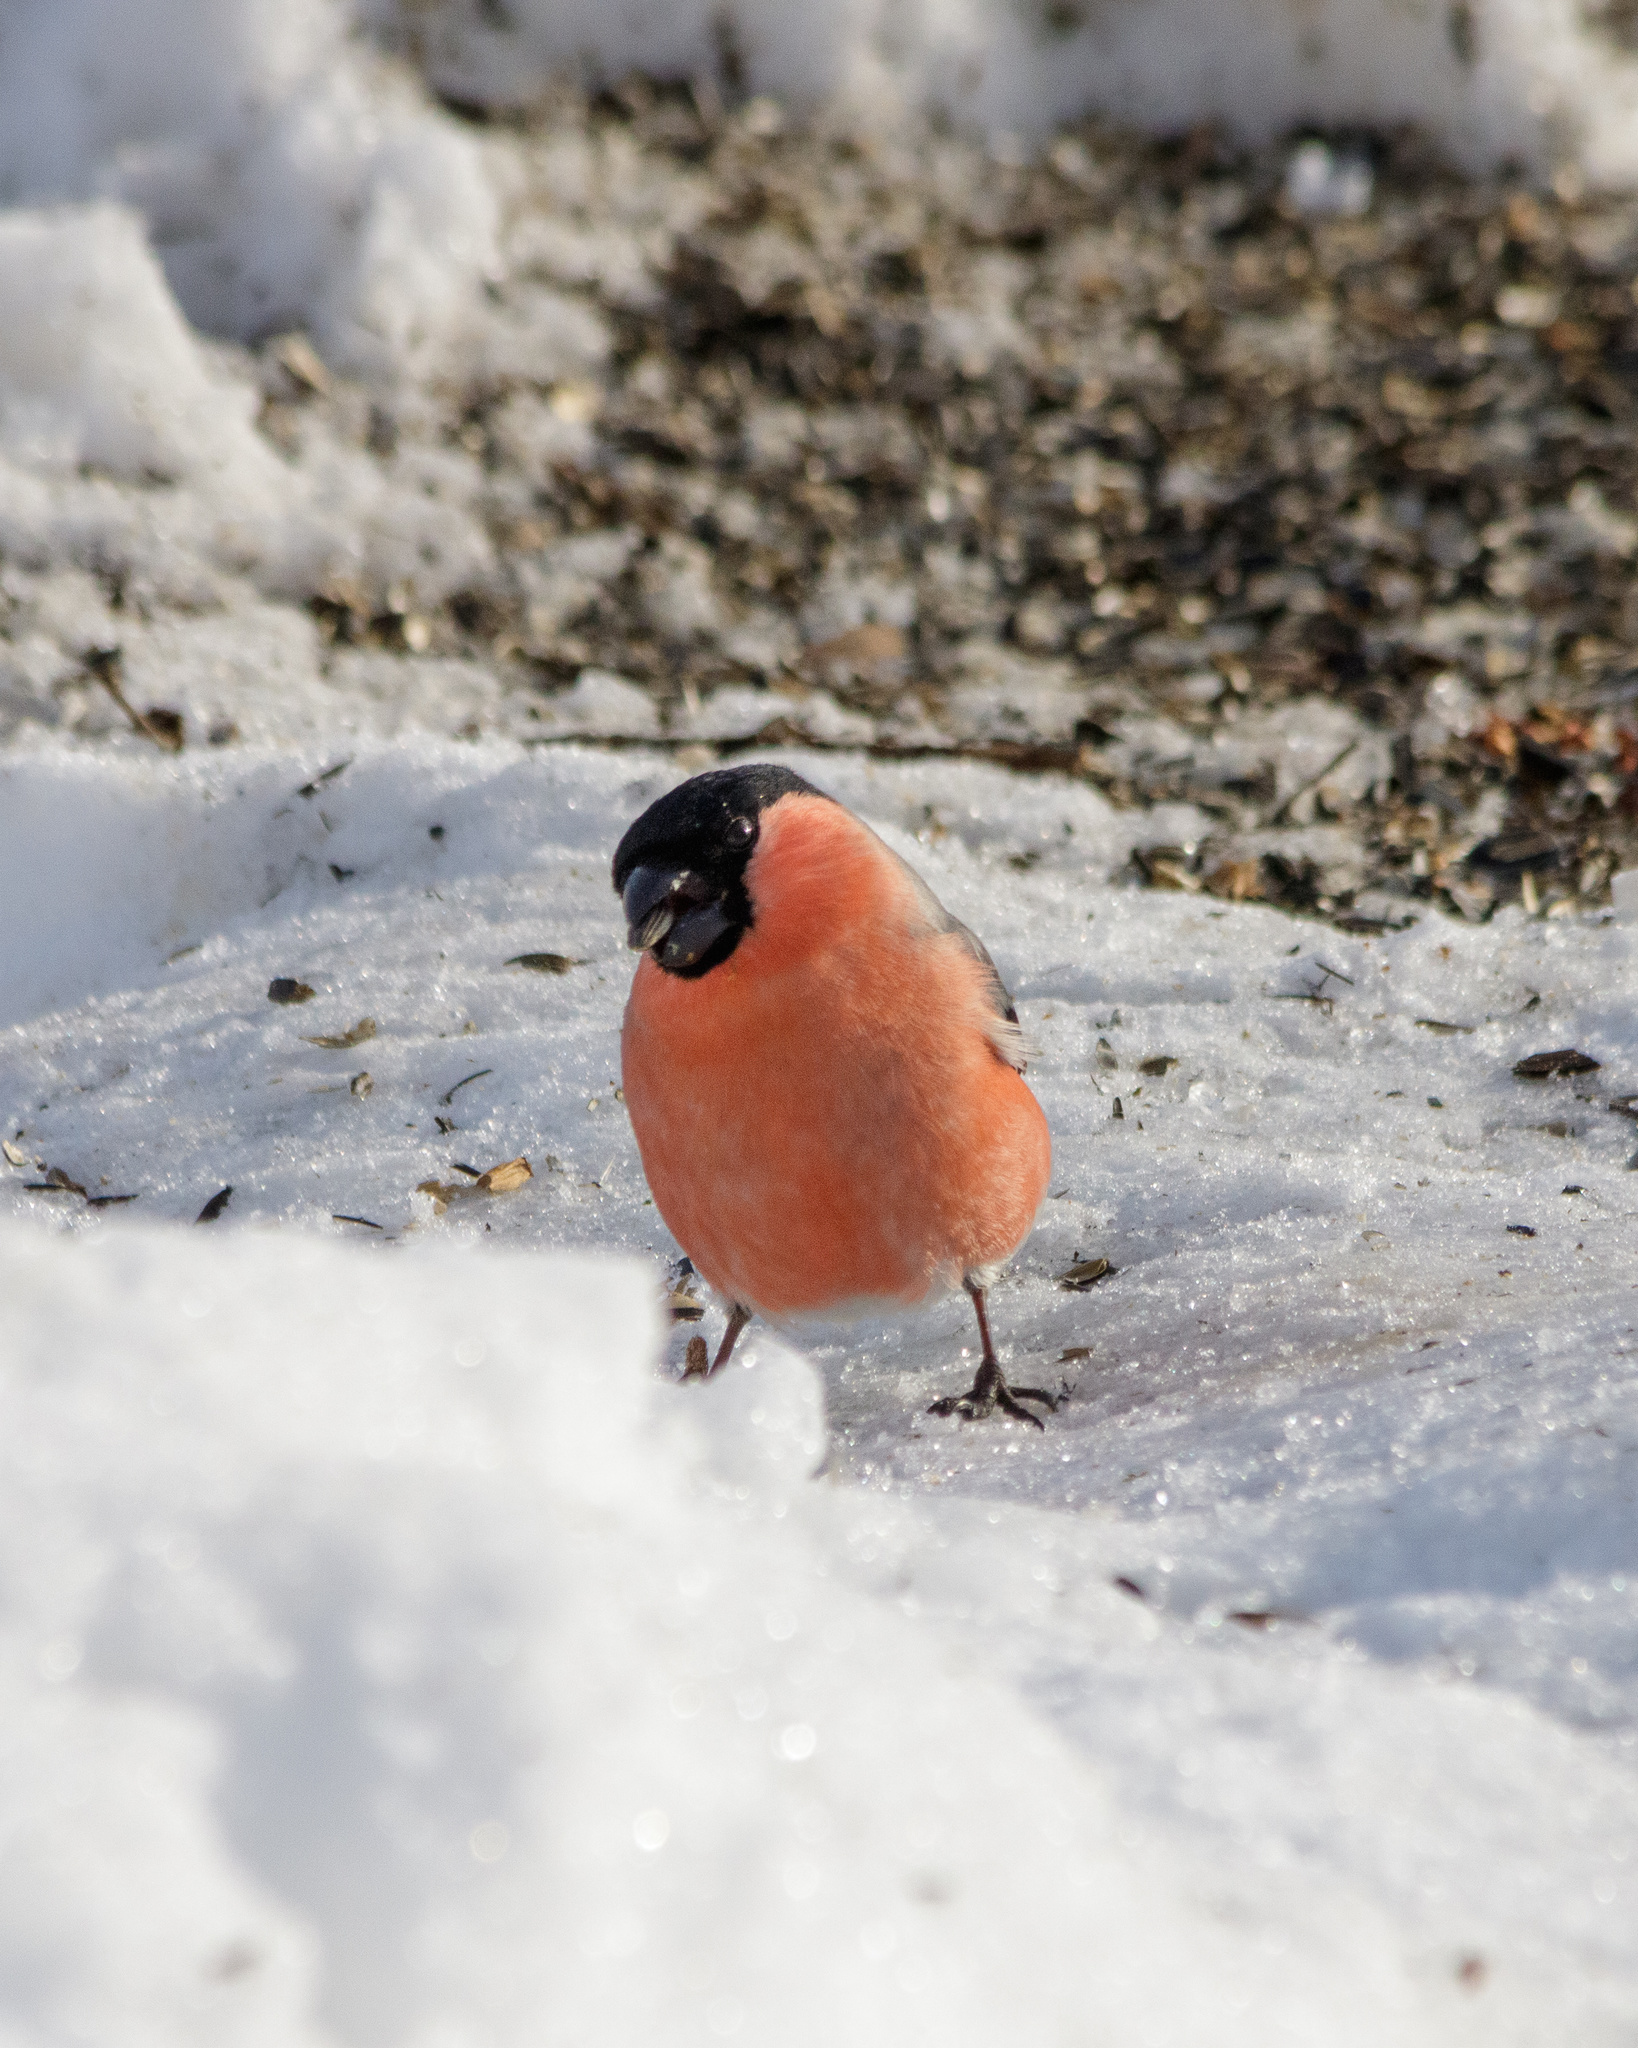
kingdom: Animalia
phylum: Chordata
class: Aves
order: Passeriformes
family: Fringillidae
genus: Pyrrhula
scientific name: Pyrrhula pyrrhula
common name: Eurasian bullfinch
